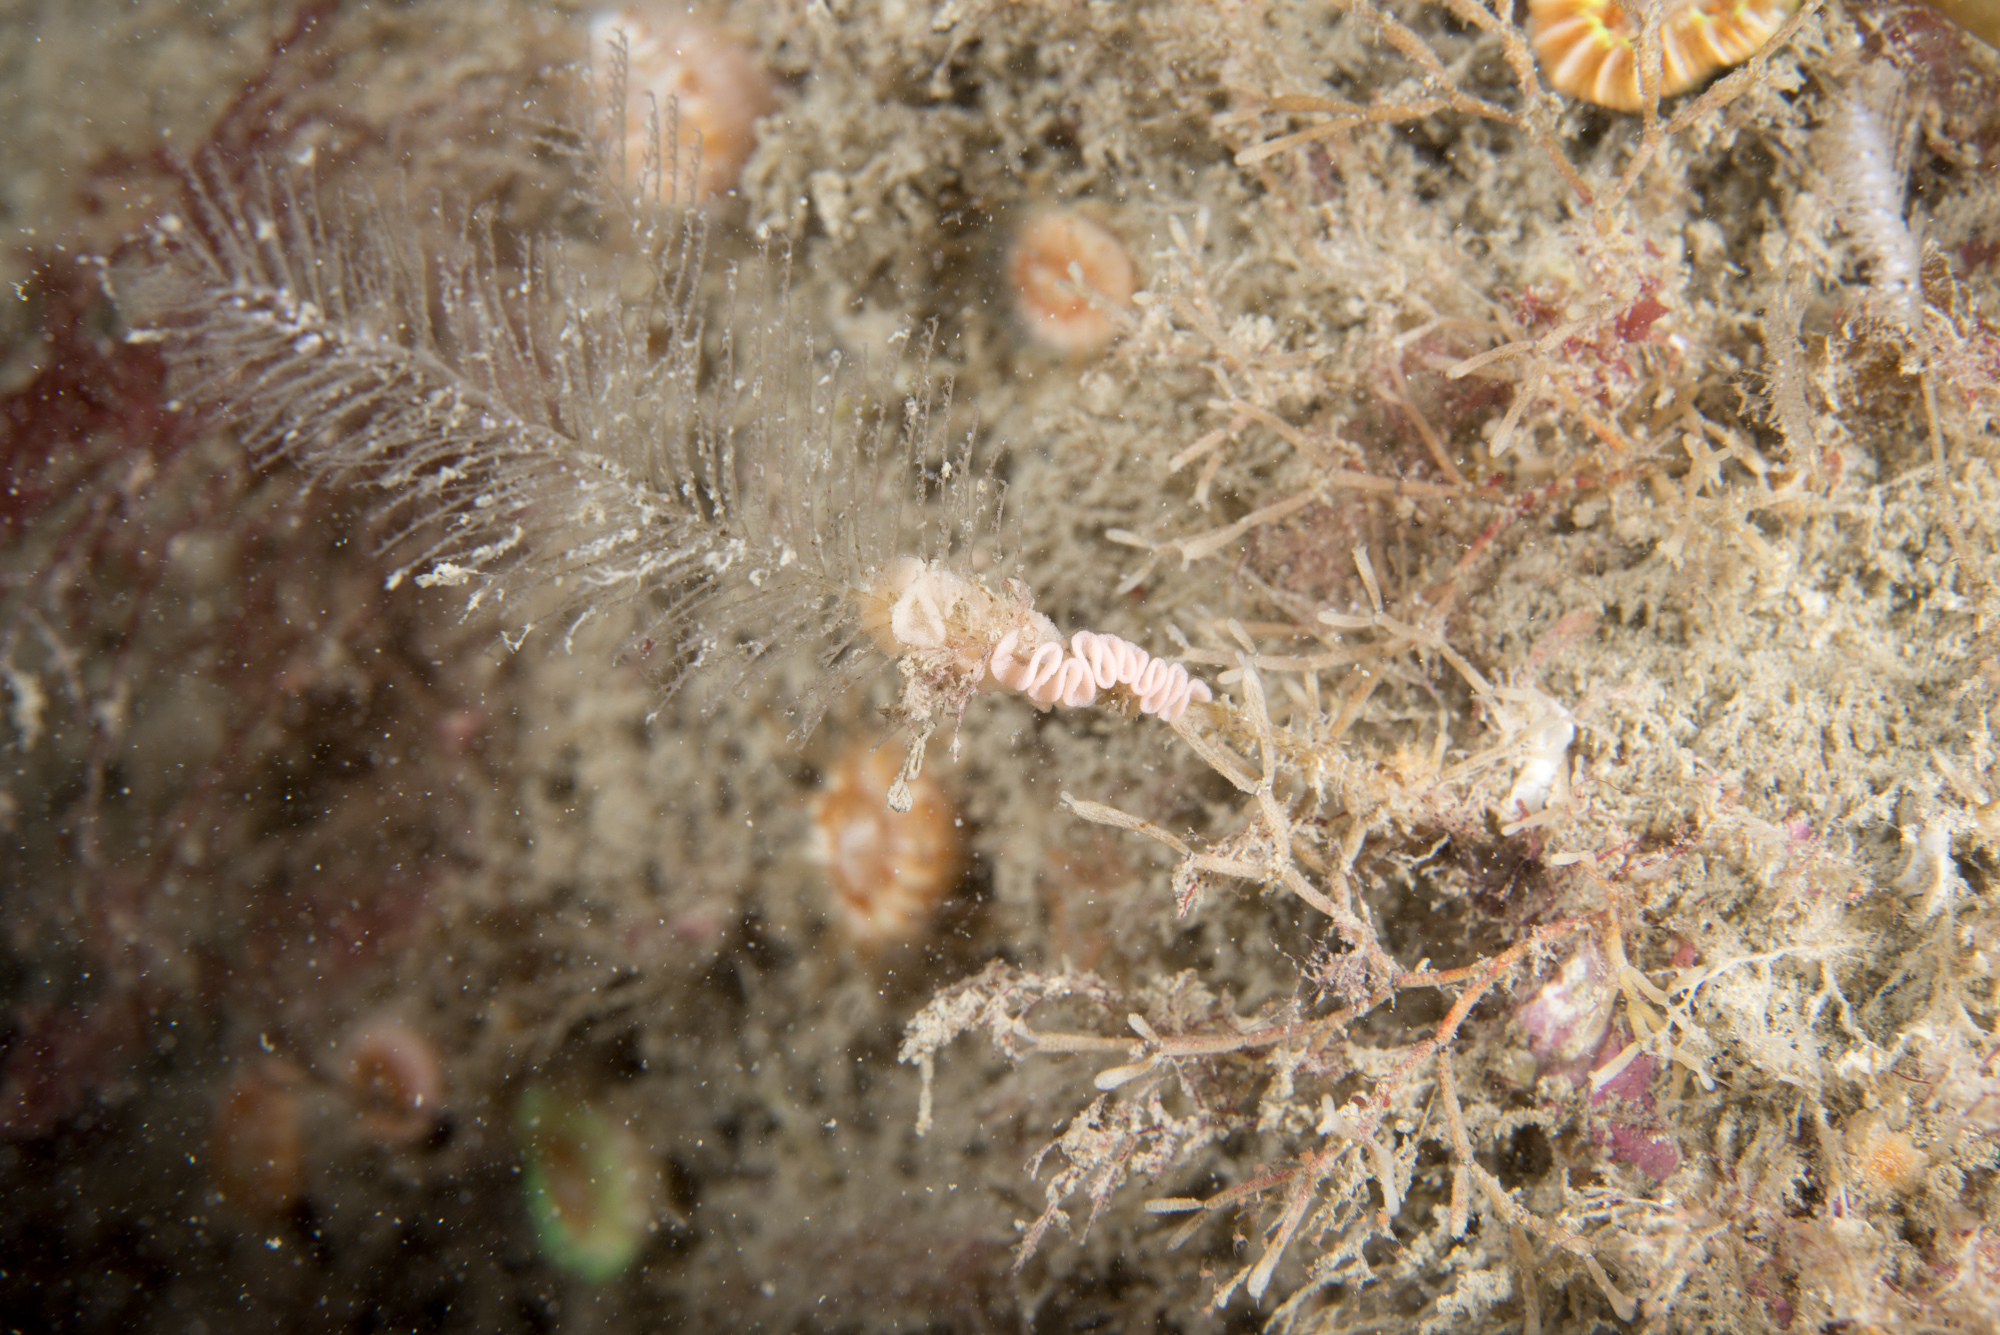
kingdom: Animalia
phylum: Mollusca
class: Gastropoda
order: Nudibranchia
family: Dotidae
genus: Doto
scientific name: Doto hystrix
